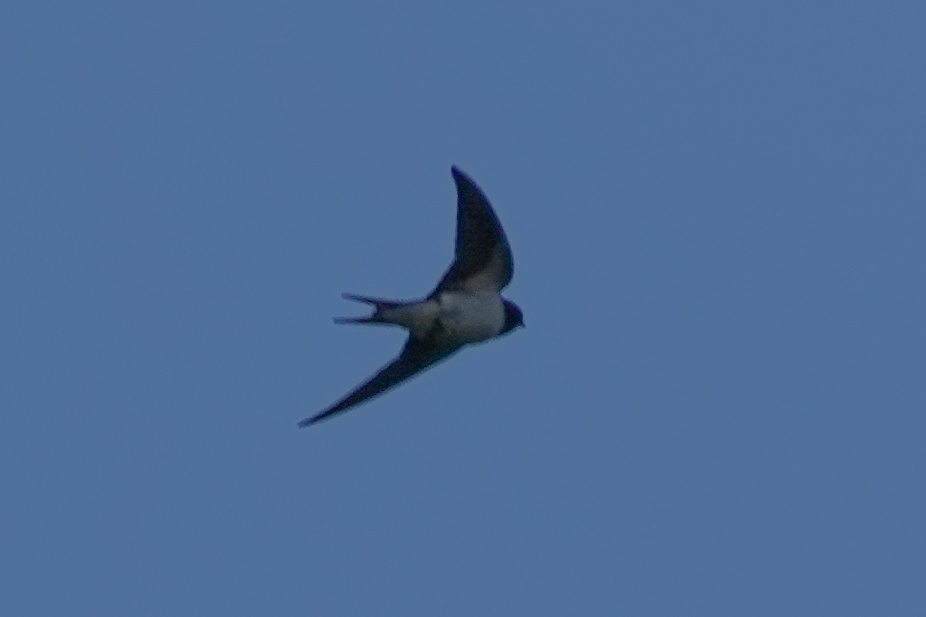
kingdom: Animalia
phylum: Chordata
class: Aves
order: Passeriformes
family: Hirundinidae
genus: Hirundo
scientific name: Hirundo rustica
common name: Barn swallow
